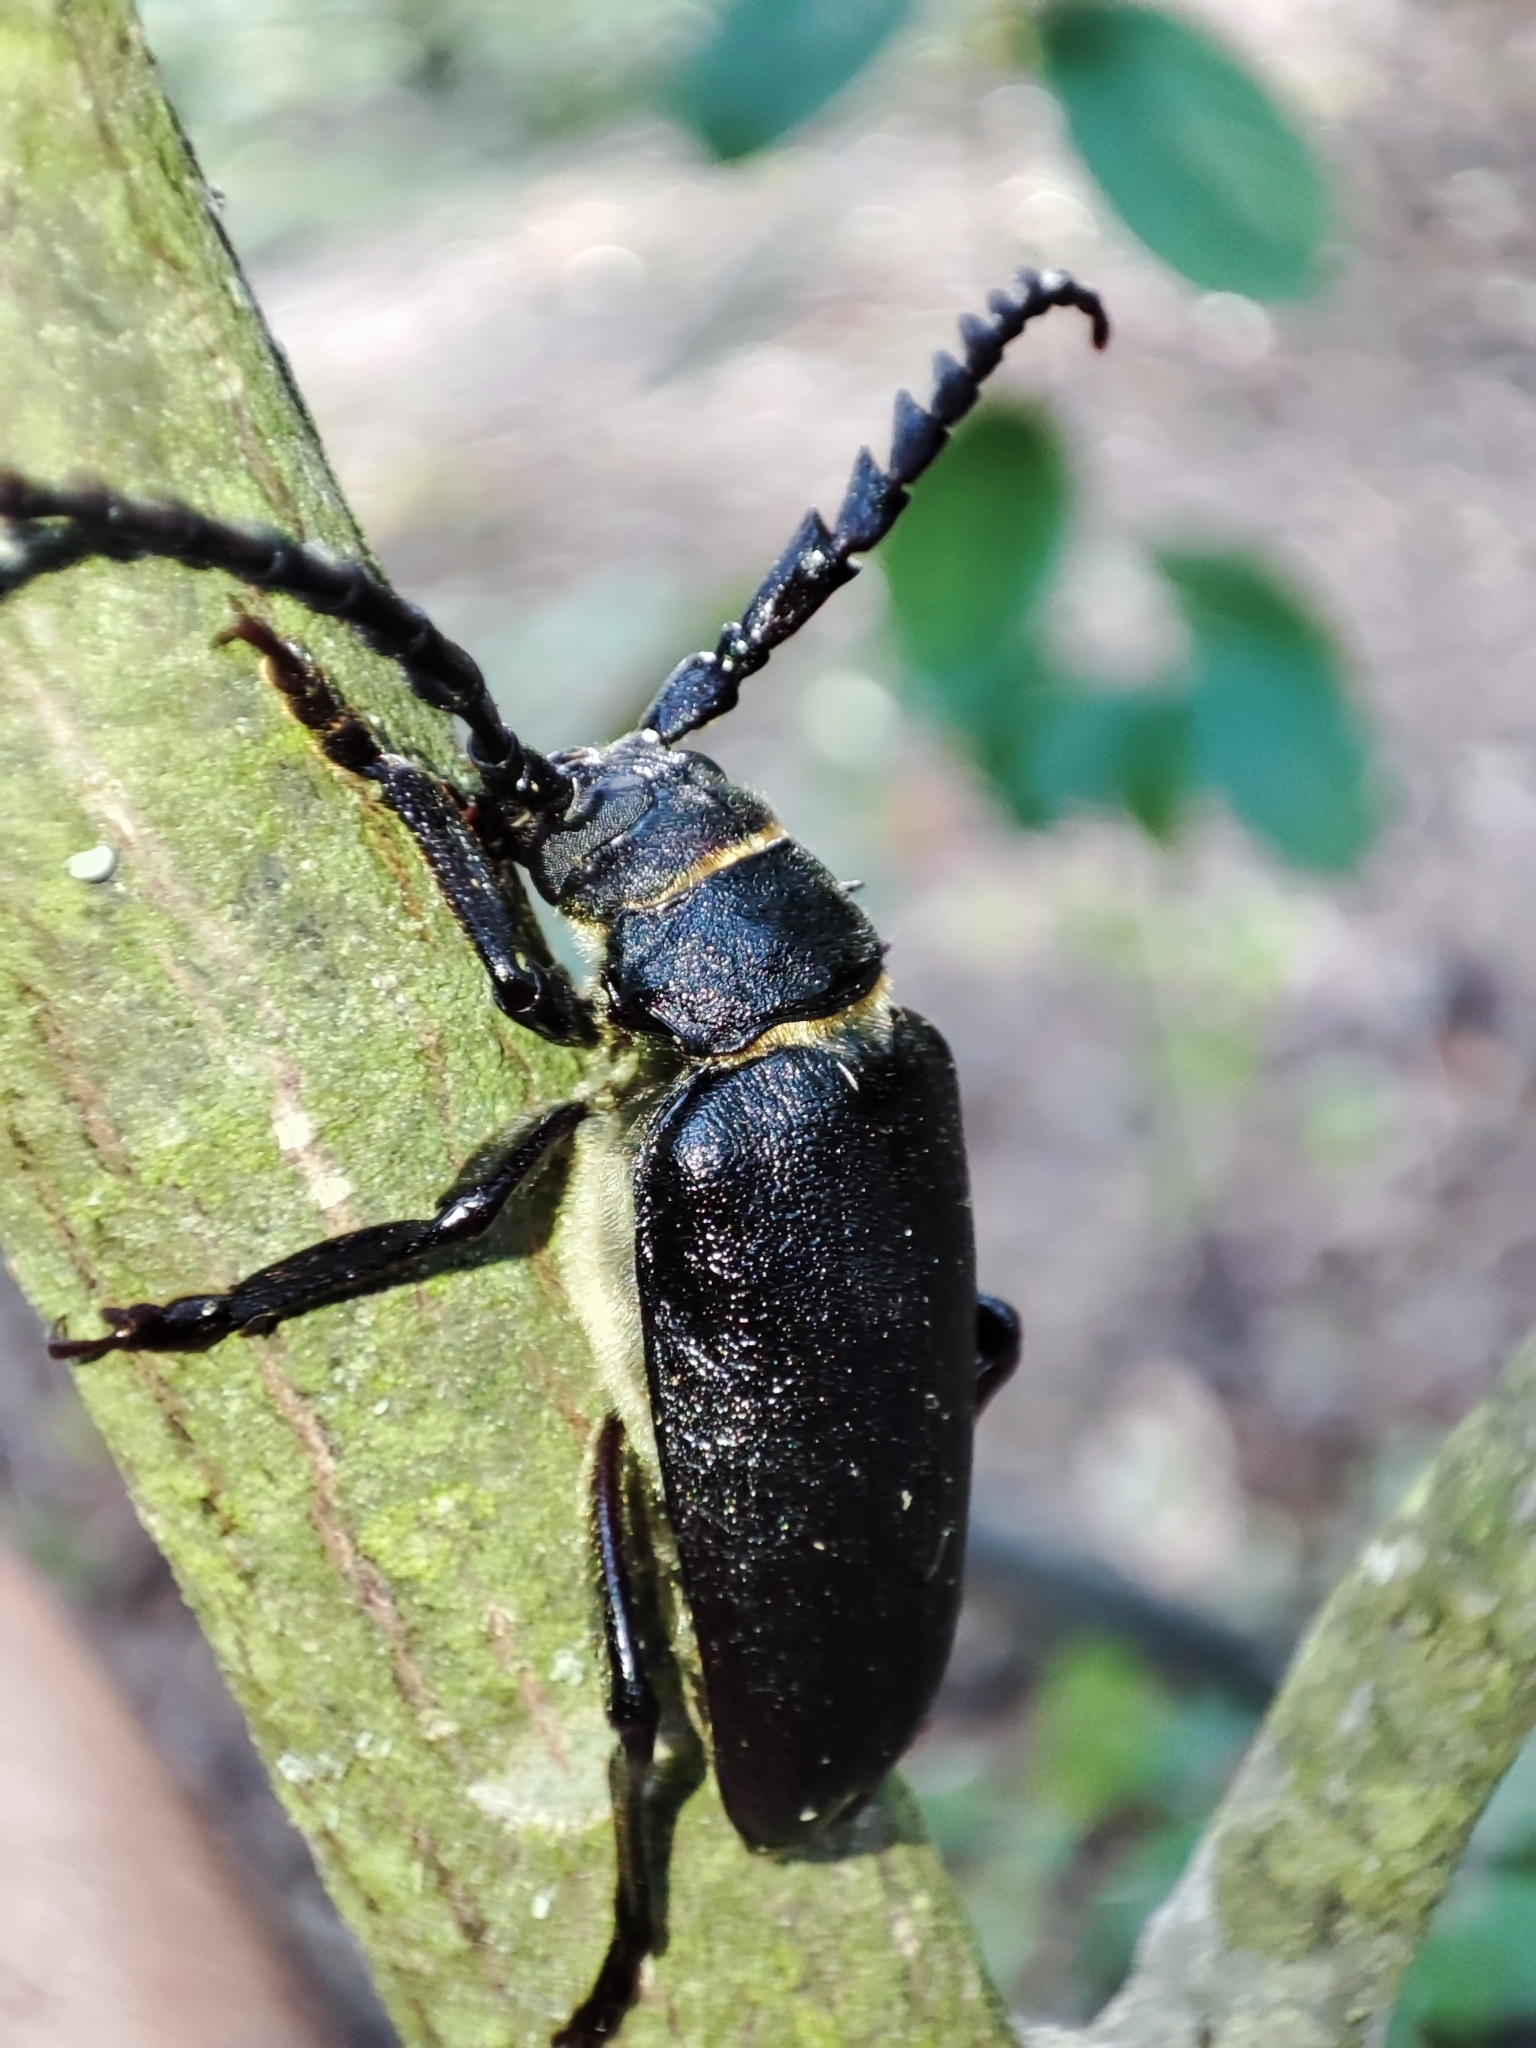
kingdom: Animalia
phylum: Arthropoda
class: Insecta
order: Coleoptera
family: Cerambycidae
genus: Prionus
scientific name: Prionus coriarius
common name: Tanner beetle
